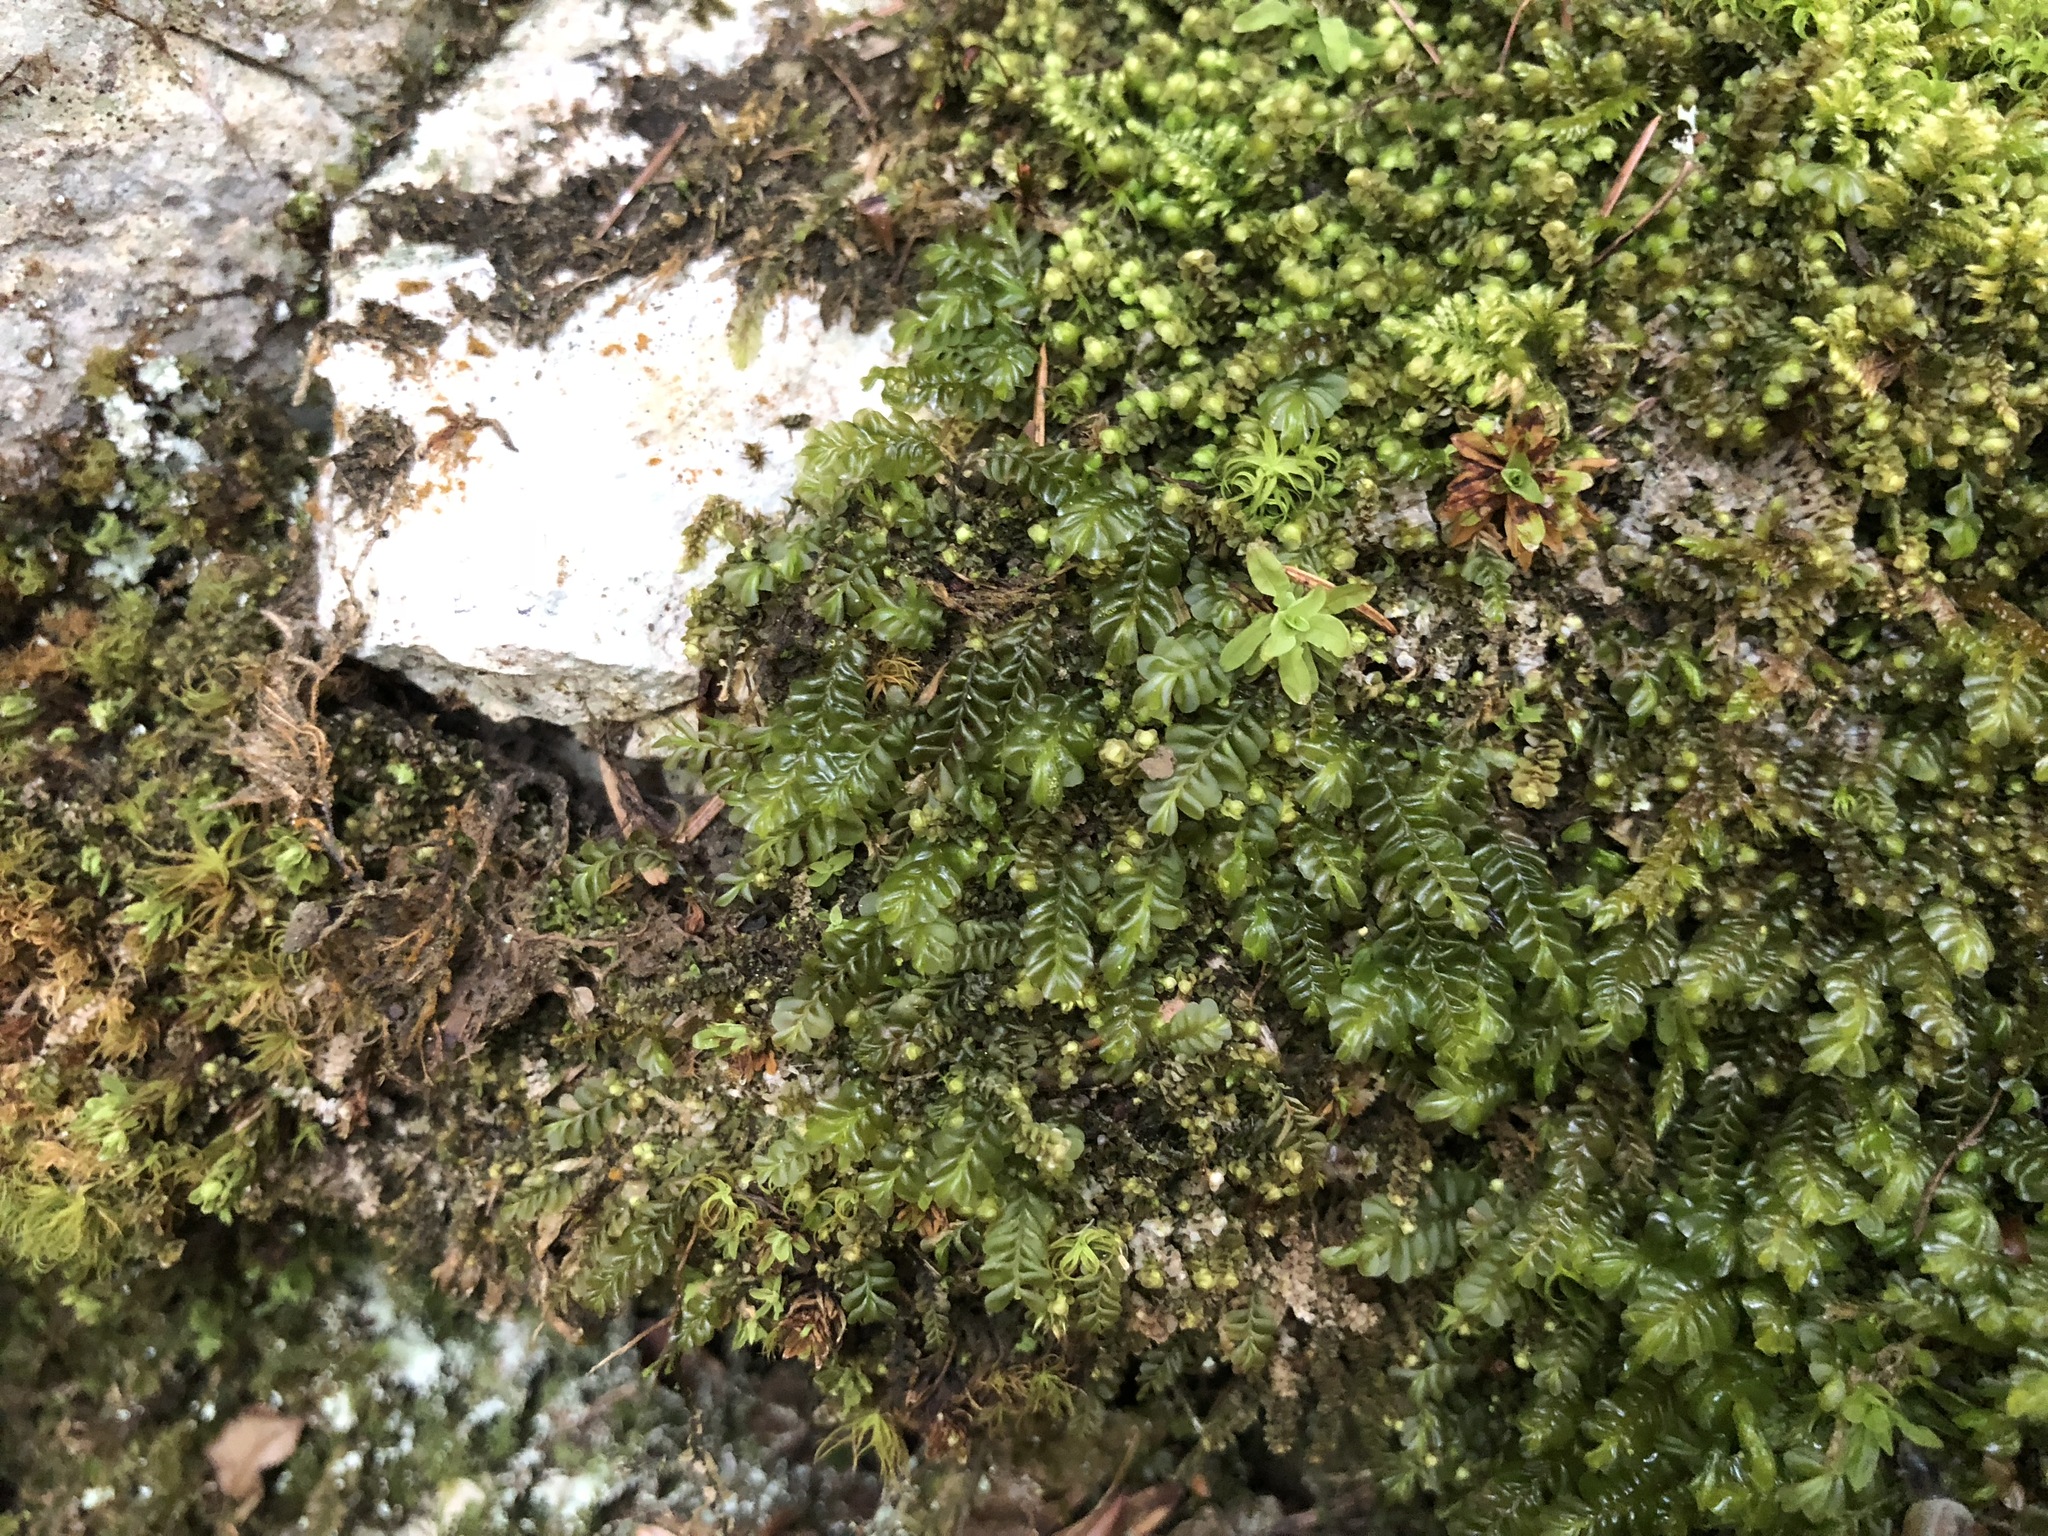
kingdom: Plantae
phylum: Marchantiophyta
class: Jungermanniopsida
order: Jungermanniales
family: Plagiochilaceae
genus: Plagiochila
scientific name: Plagiochila porelloides
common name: Lesser featherwort
